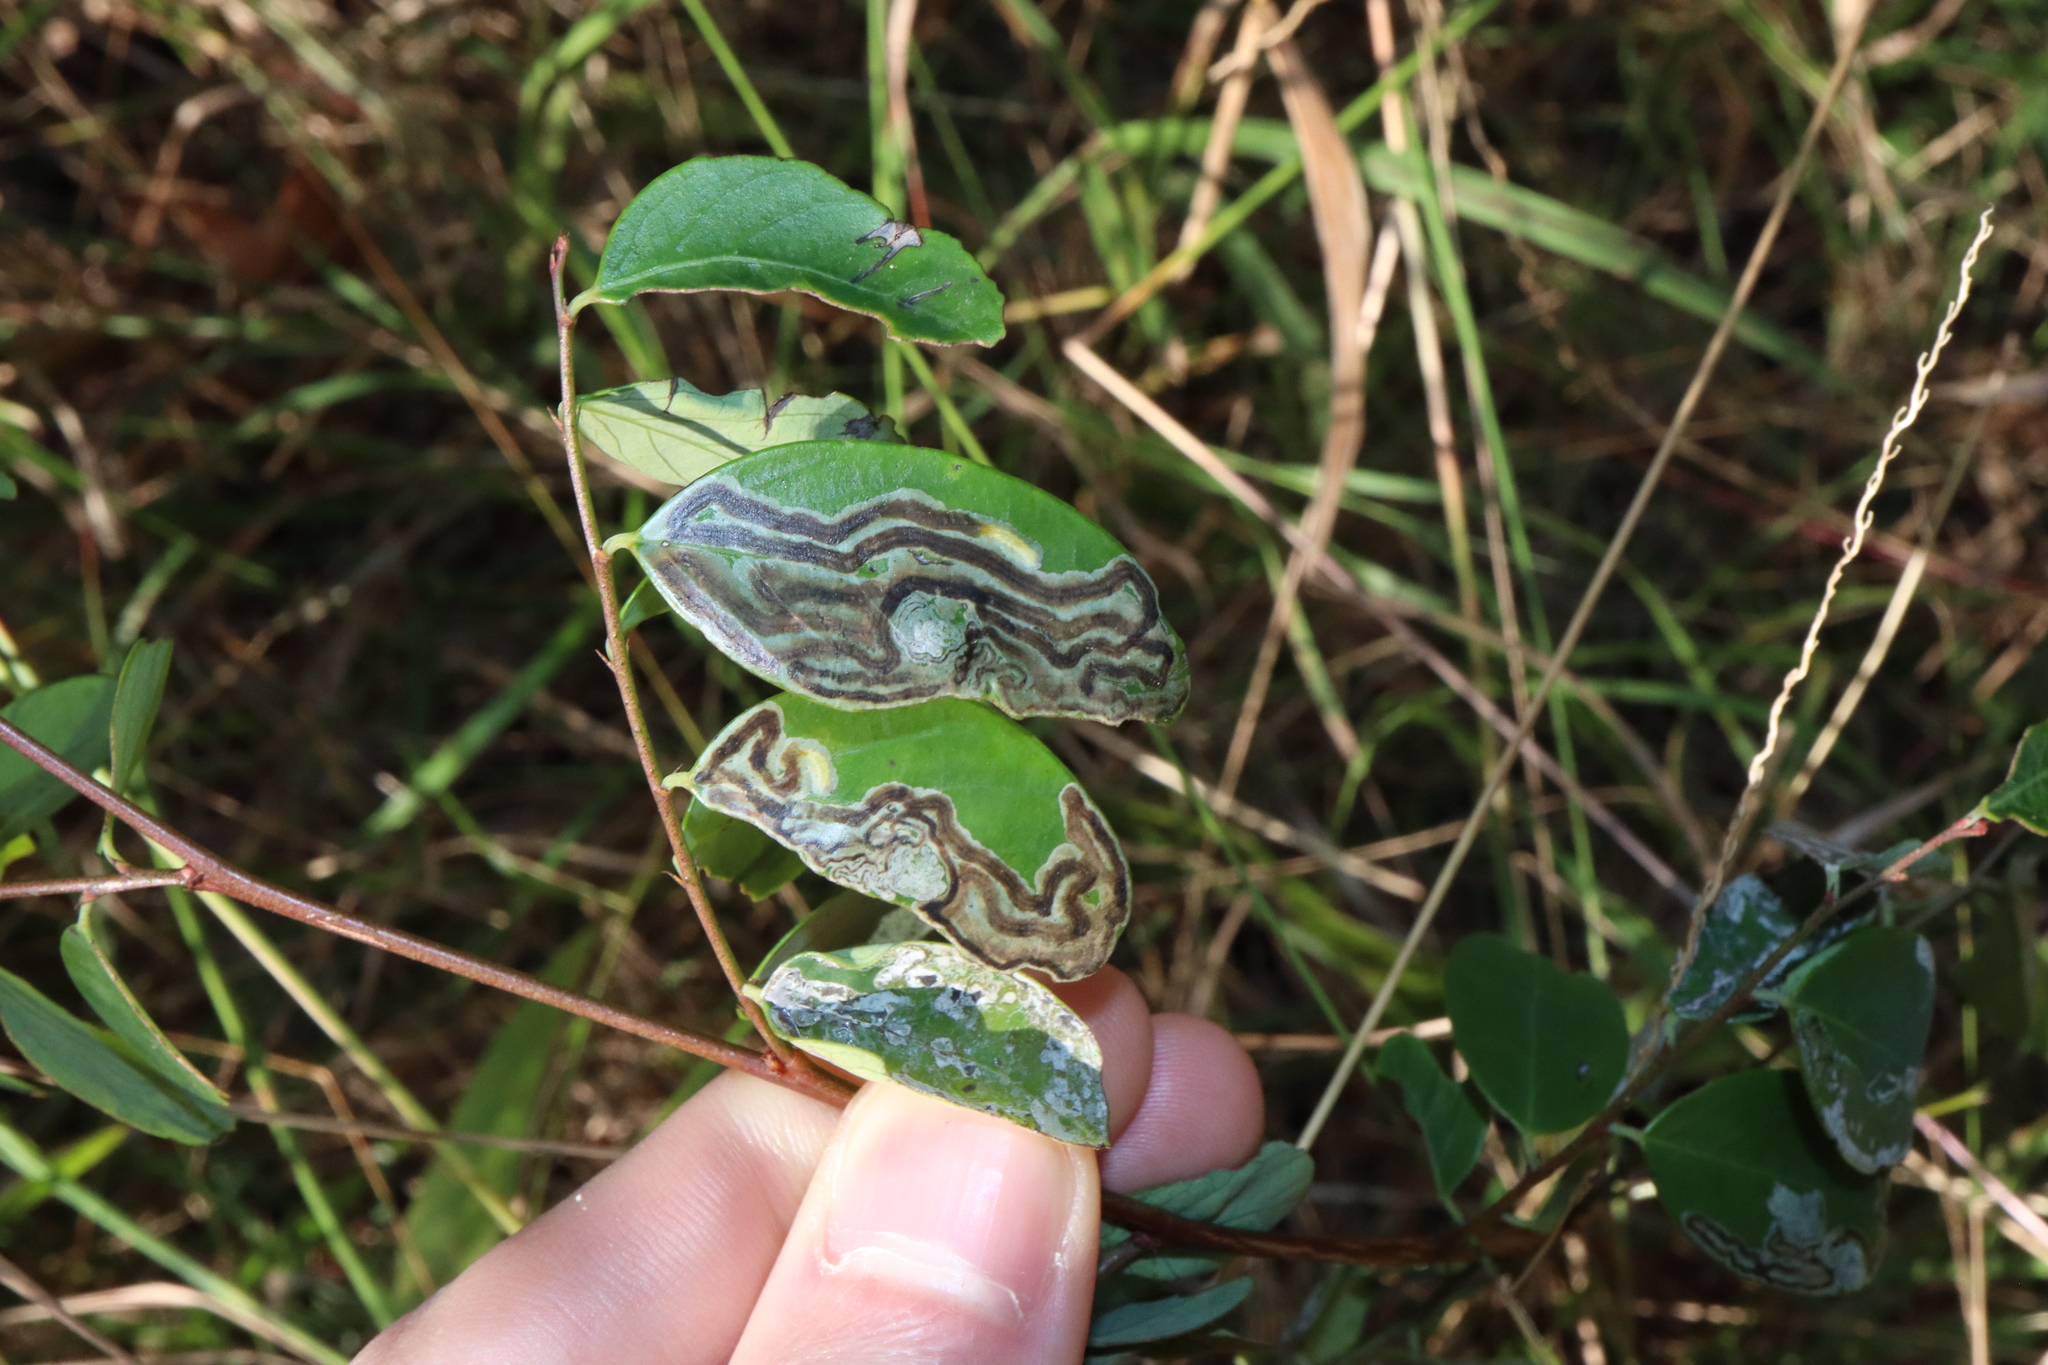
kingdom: Animalia
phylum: Arthropoda
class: Insecta
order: Lepidoptera
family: Gracillariidae
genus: Phyllocnistis
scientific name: Phyllocnistis diaugella
